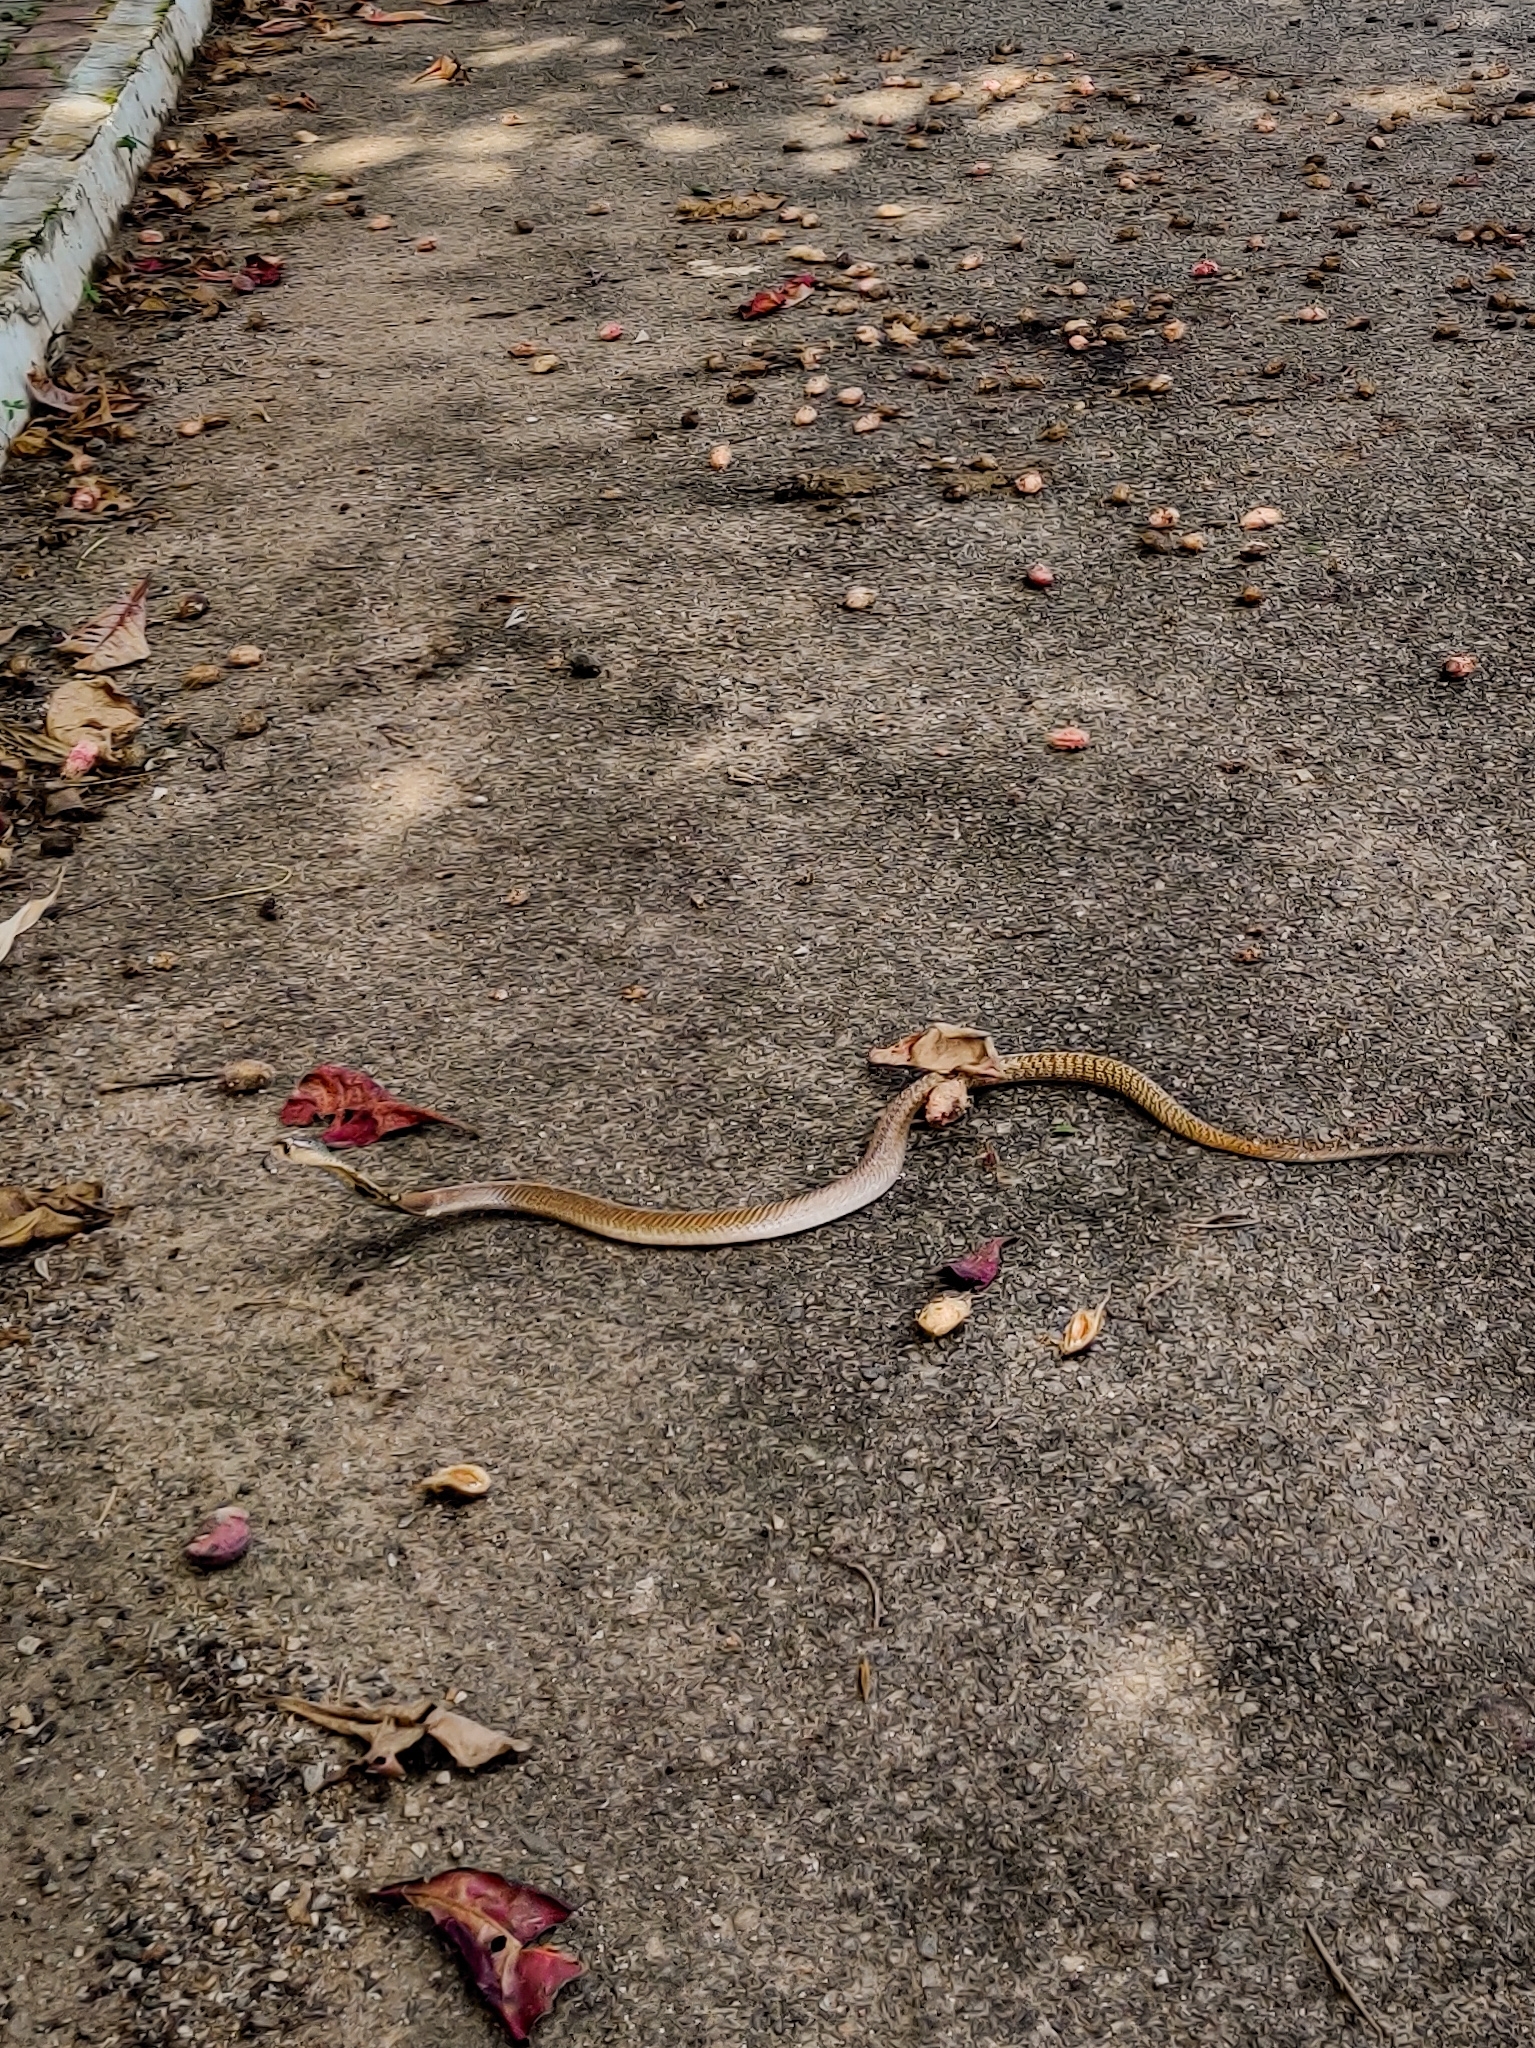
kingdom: Animalia
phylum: Chordata
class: Squamata
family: Elapidae
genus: Naja
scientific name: Naja naja
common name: Indian cobra
